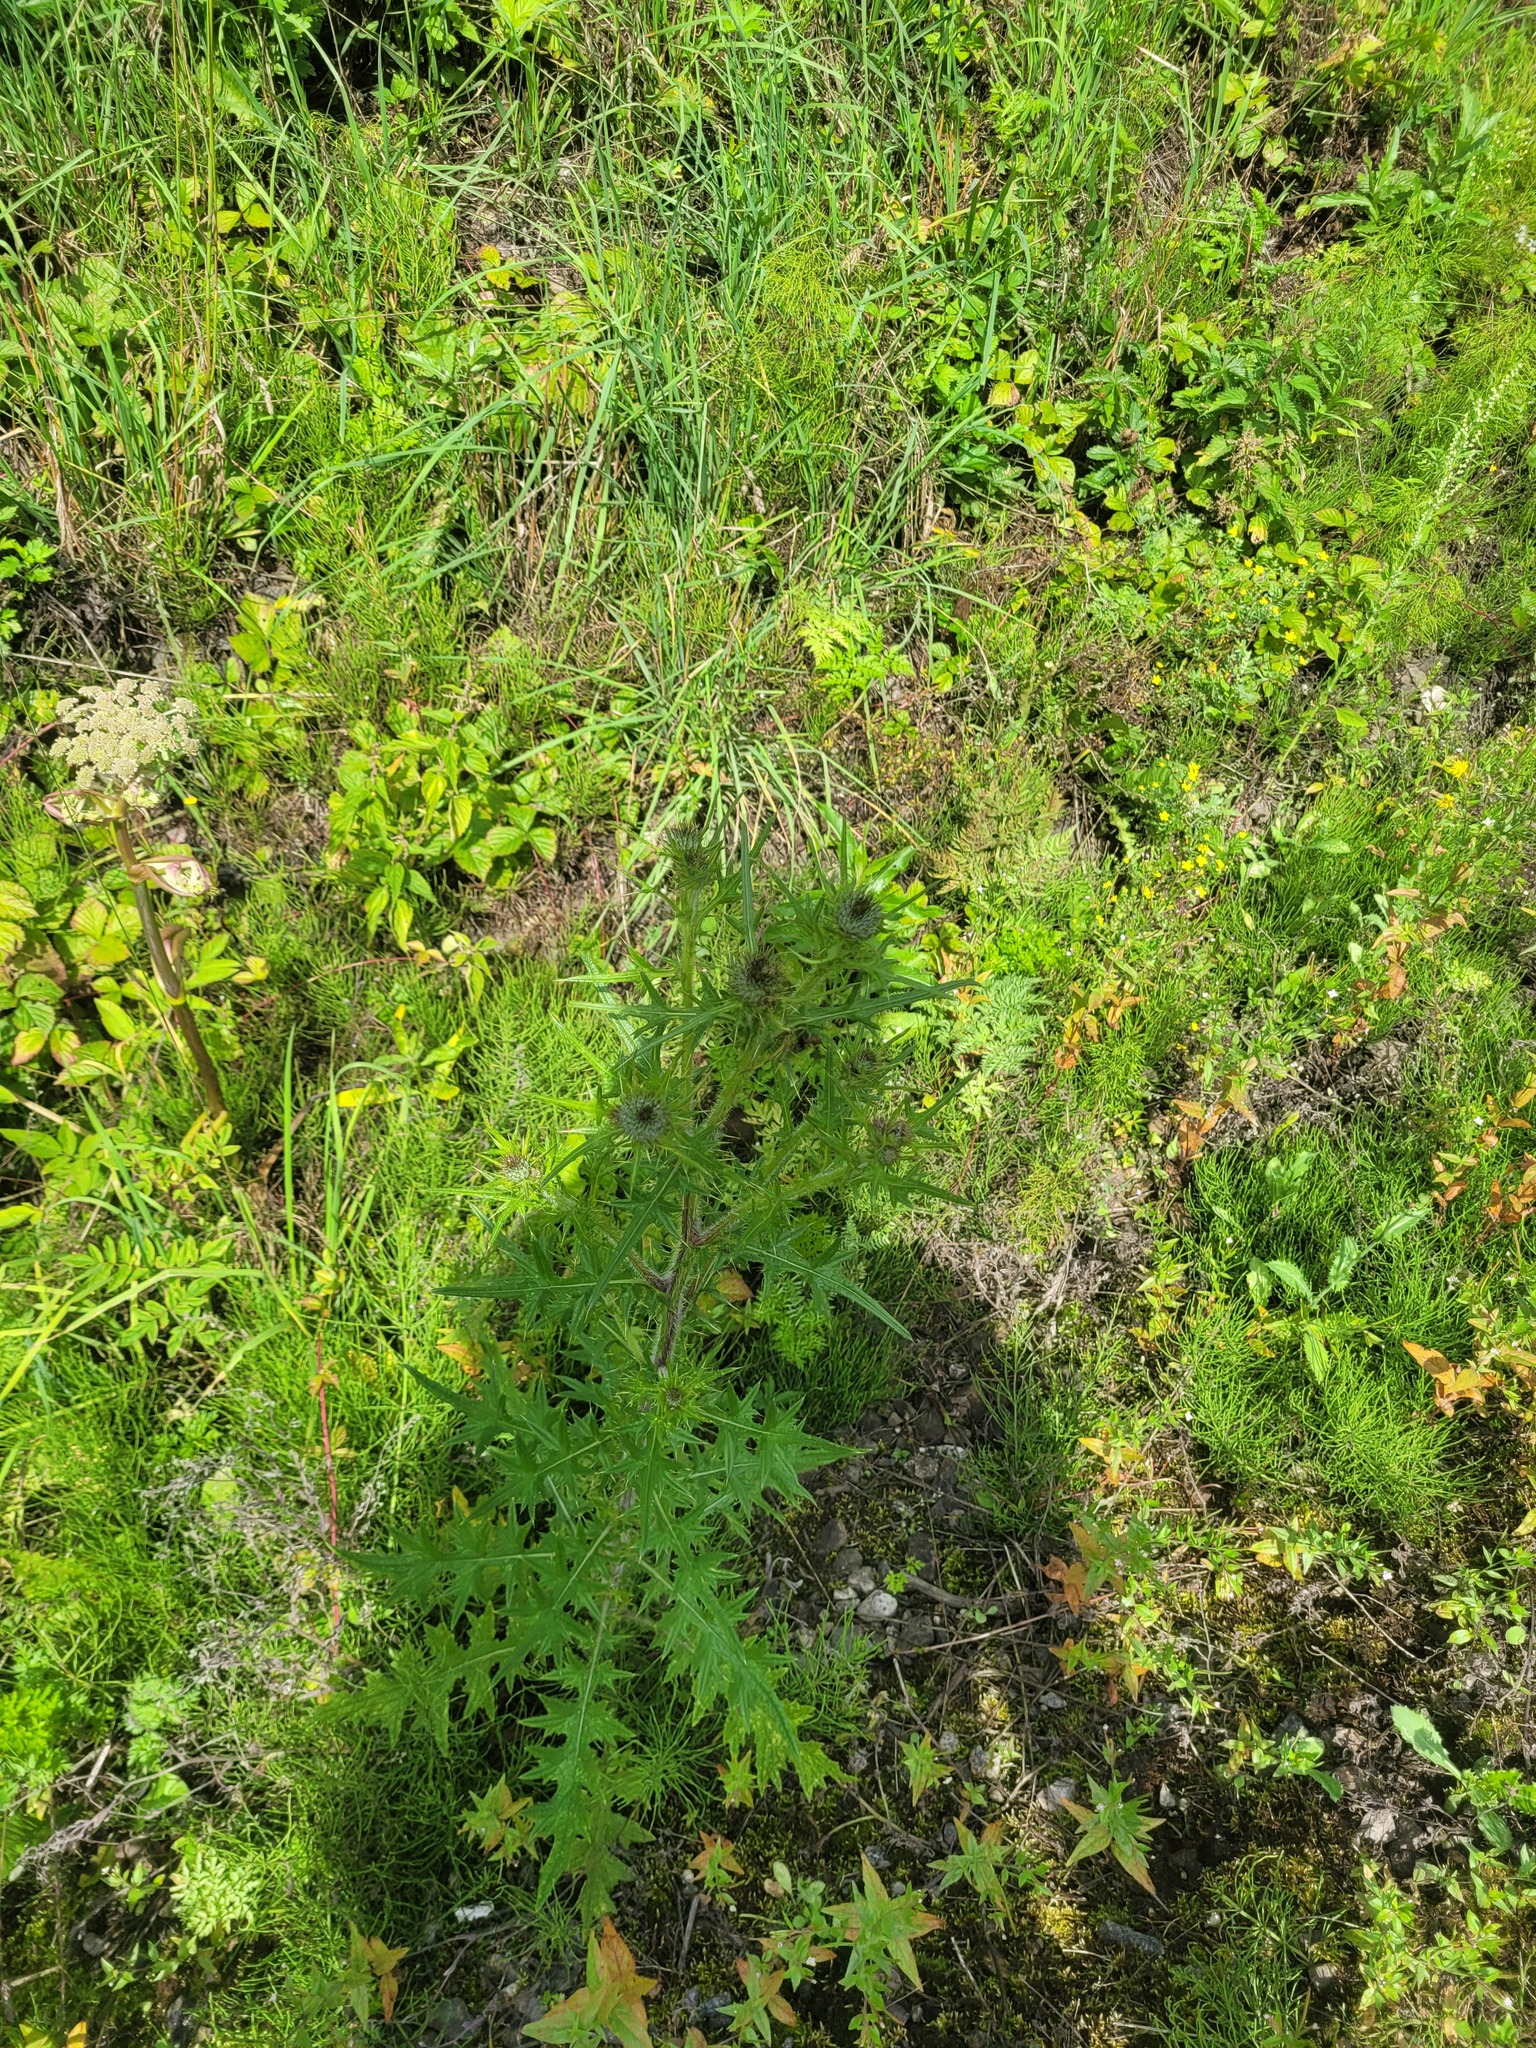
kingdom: Plantae
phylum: Tracheophyta
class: Magnoliopsida
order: Asterales
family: Asteraceae
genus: Cirsium
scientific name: Cirsium arvense
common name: Creeping thistle
